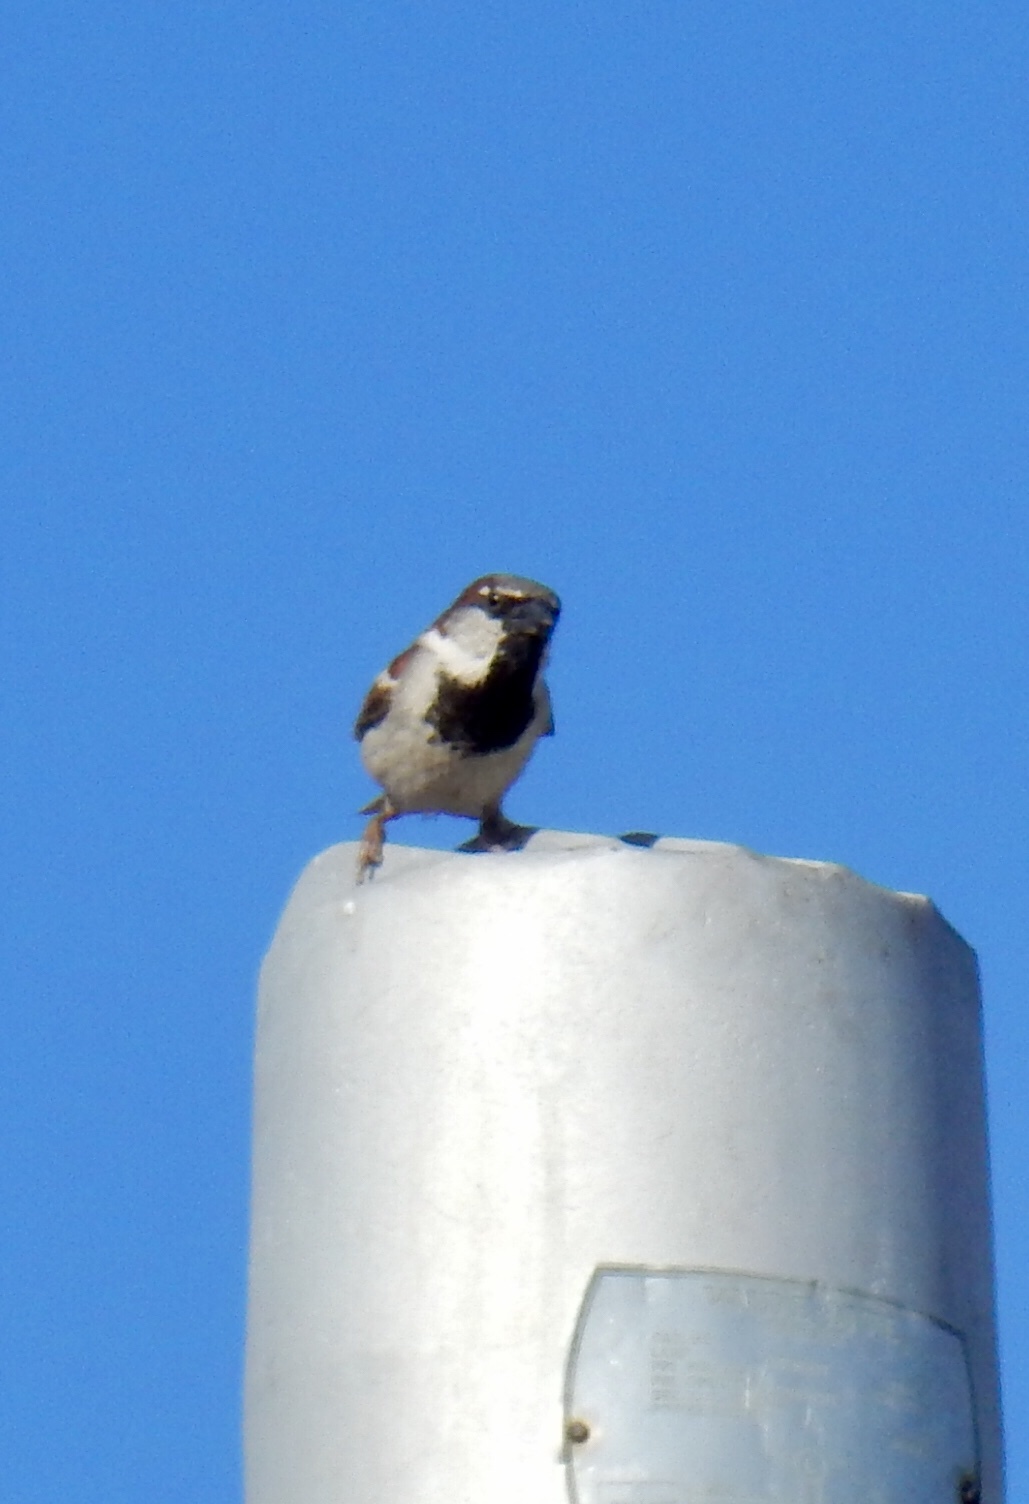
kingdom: Animalia
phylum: Chordata
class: Aves
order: Passeriformes
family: Passeridae
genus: Passer
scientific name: Passer domesticus
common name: House sparrow
